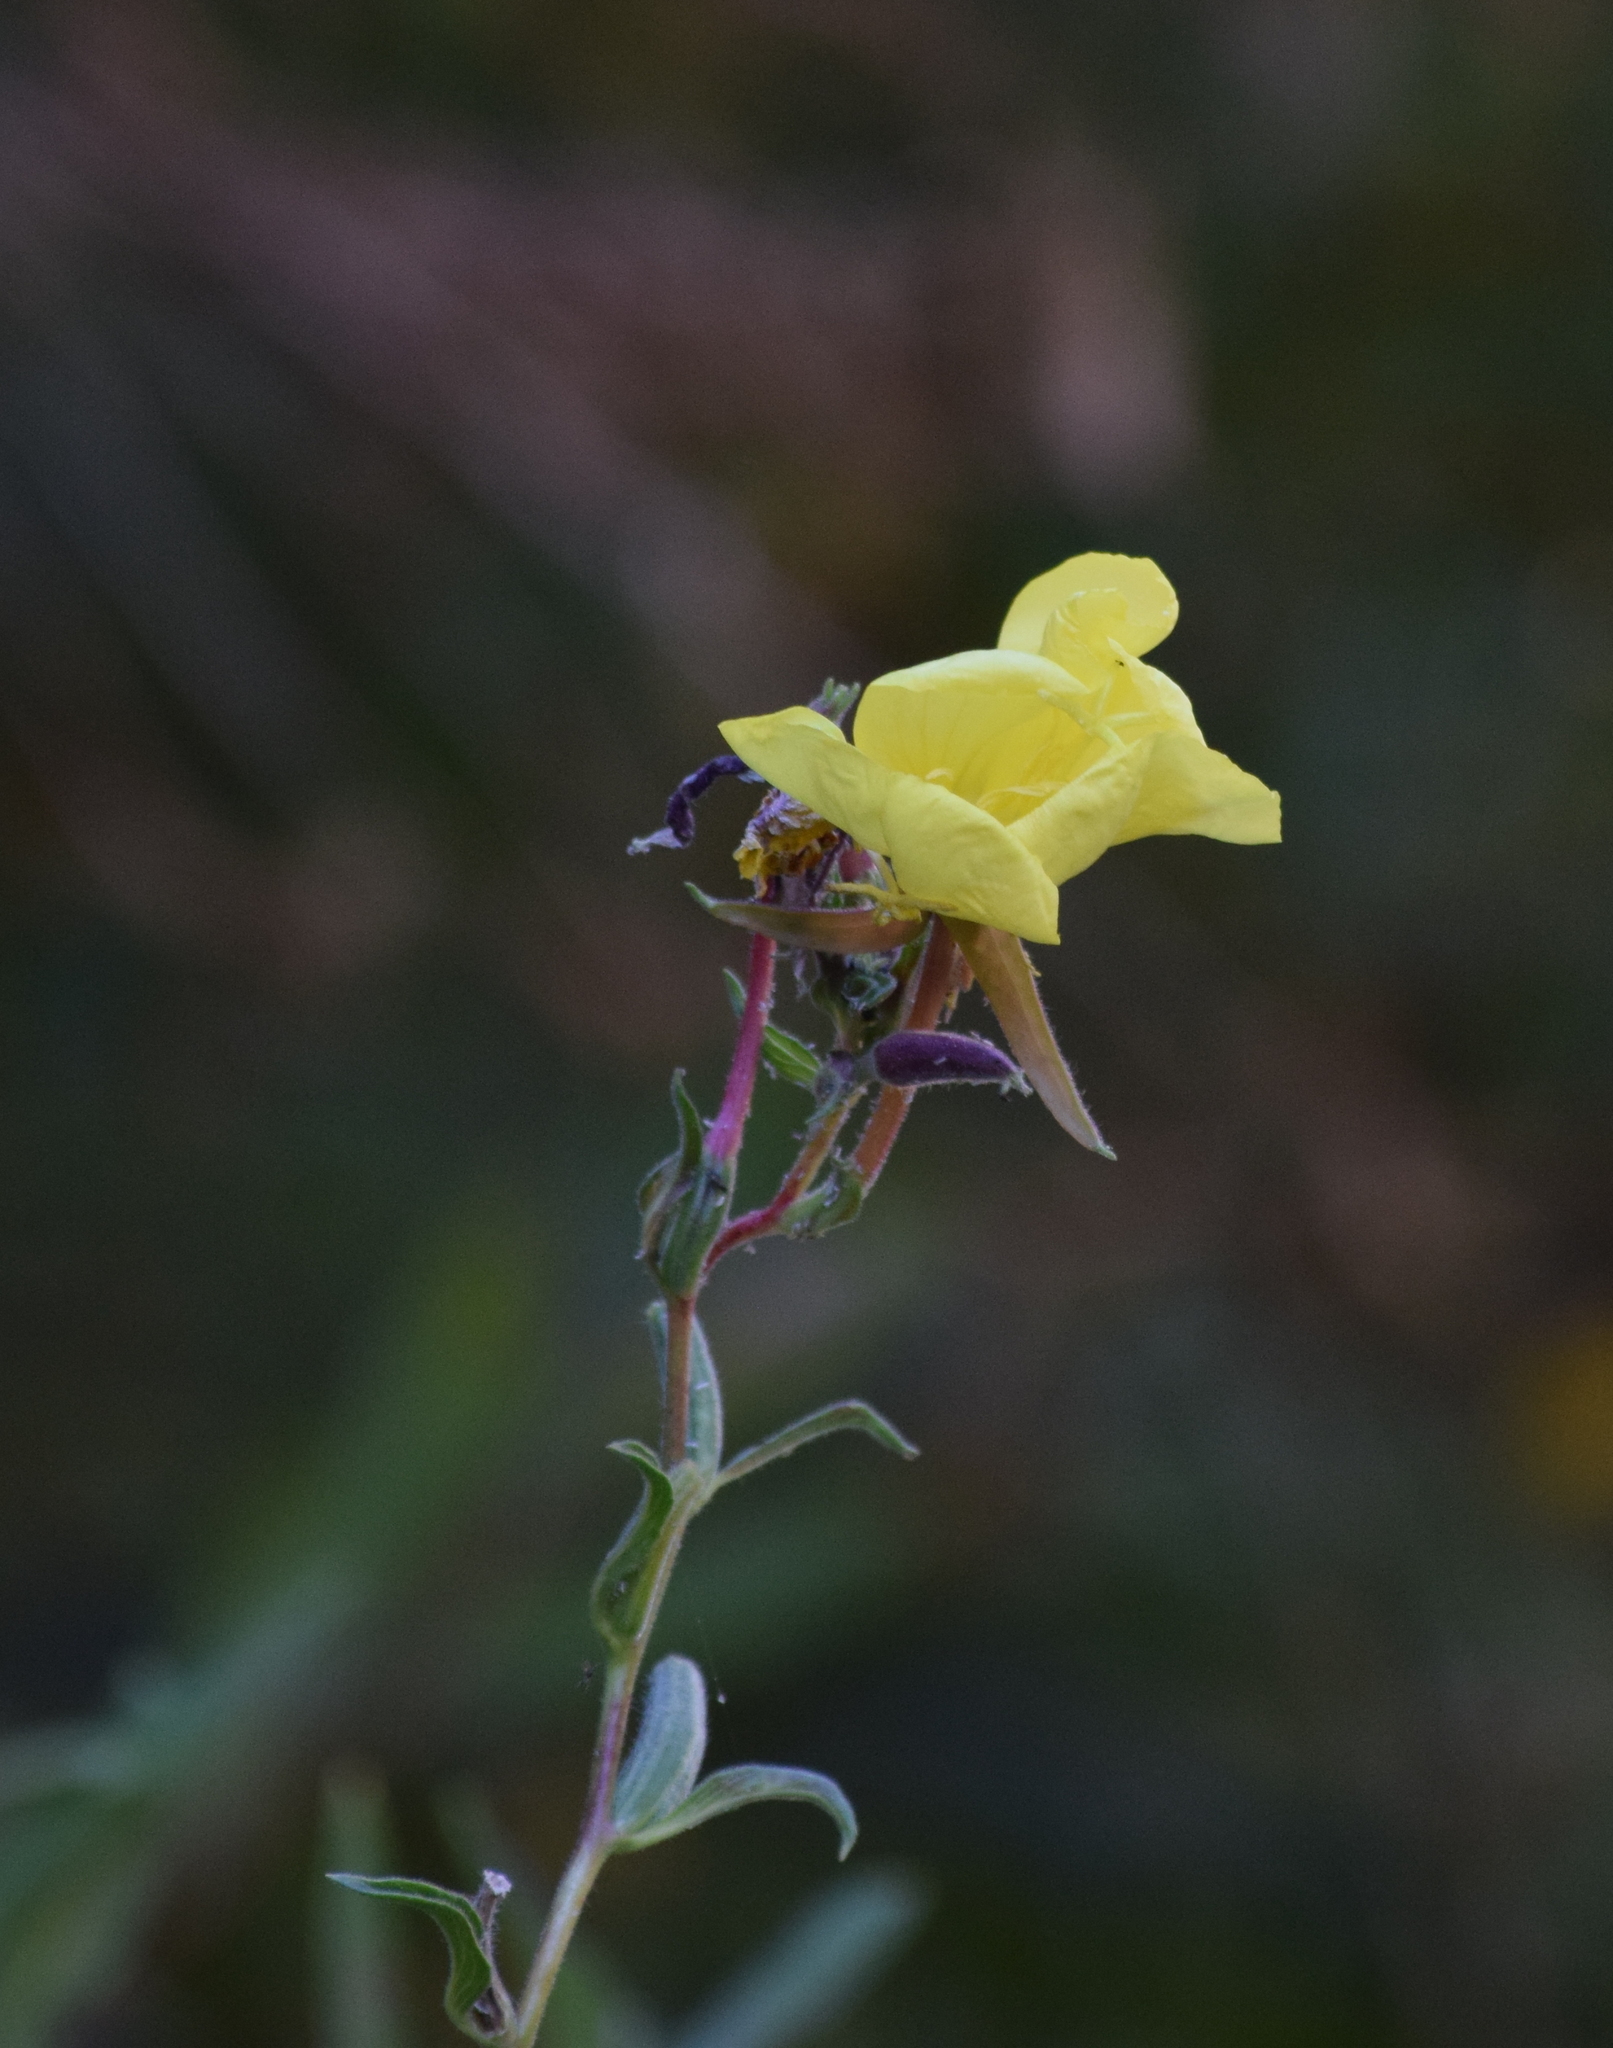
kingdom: Plantae
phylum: Tracheophyta
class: Magnoliopsida
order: Myrtales
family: Onagraceae
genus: Oenothera
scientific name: Oenothera elata
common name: Hooker's evening-primrose
